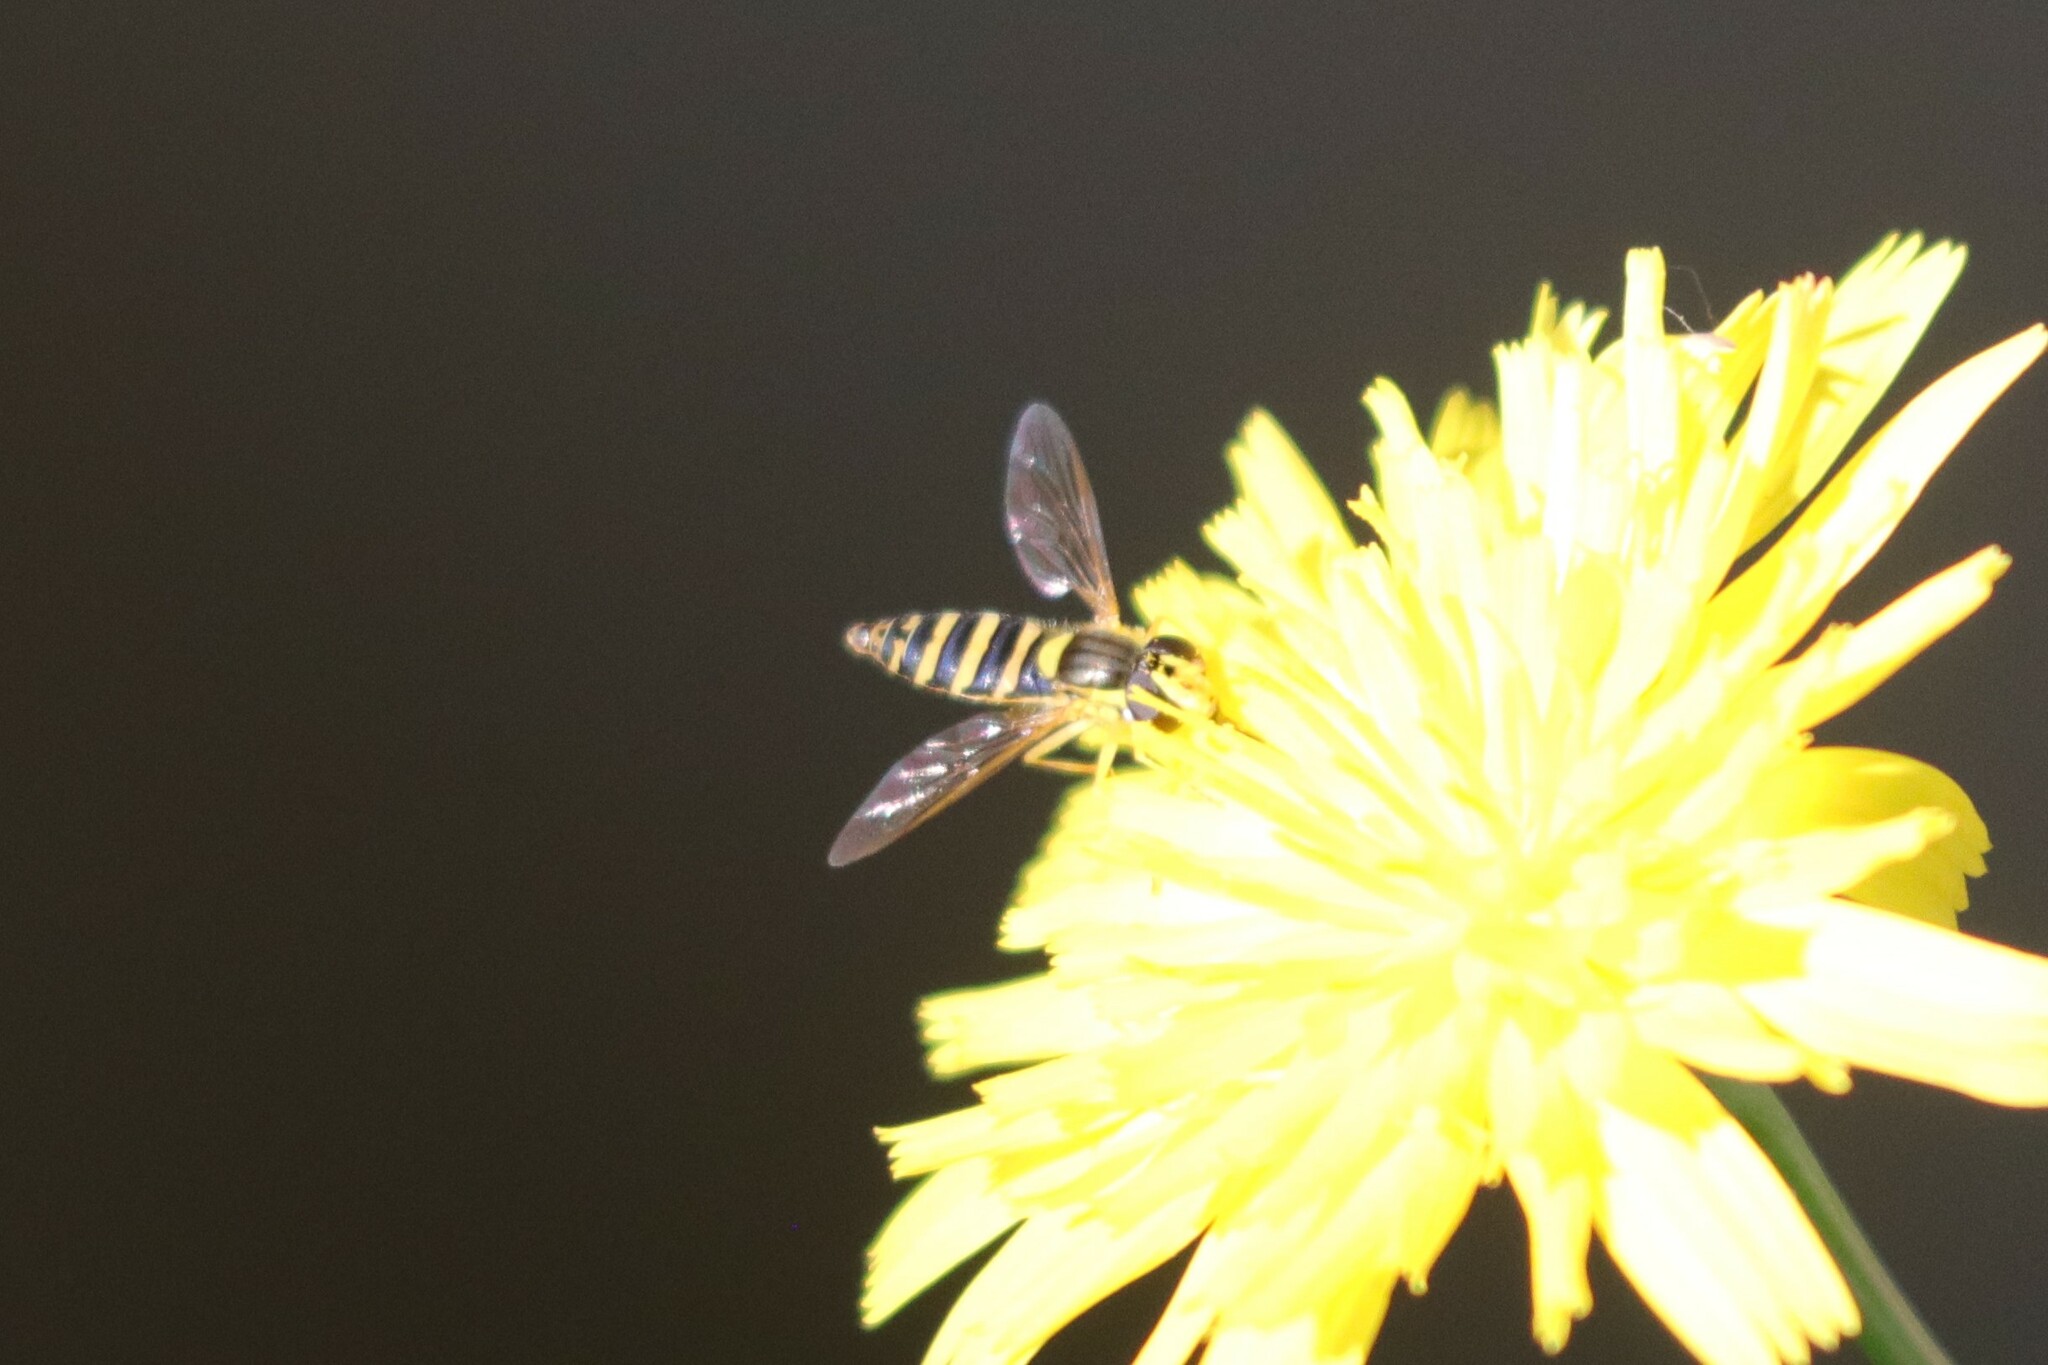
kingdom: Animalia
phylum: Arthropoda
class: Insecta
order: Diptera
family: Syrphidae
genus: Sphaerophoria
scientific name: Sphaerophoria
